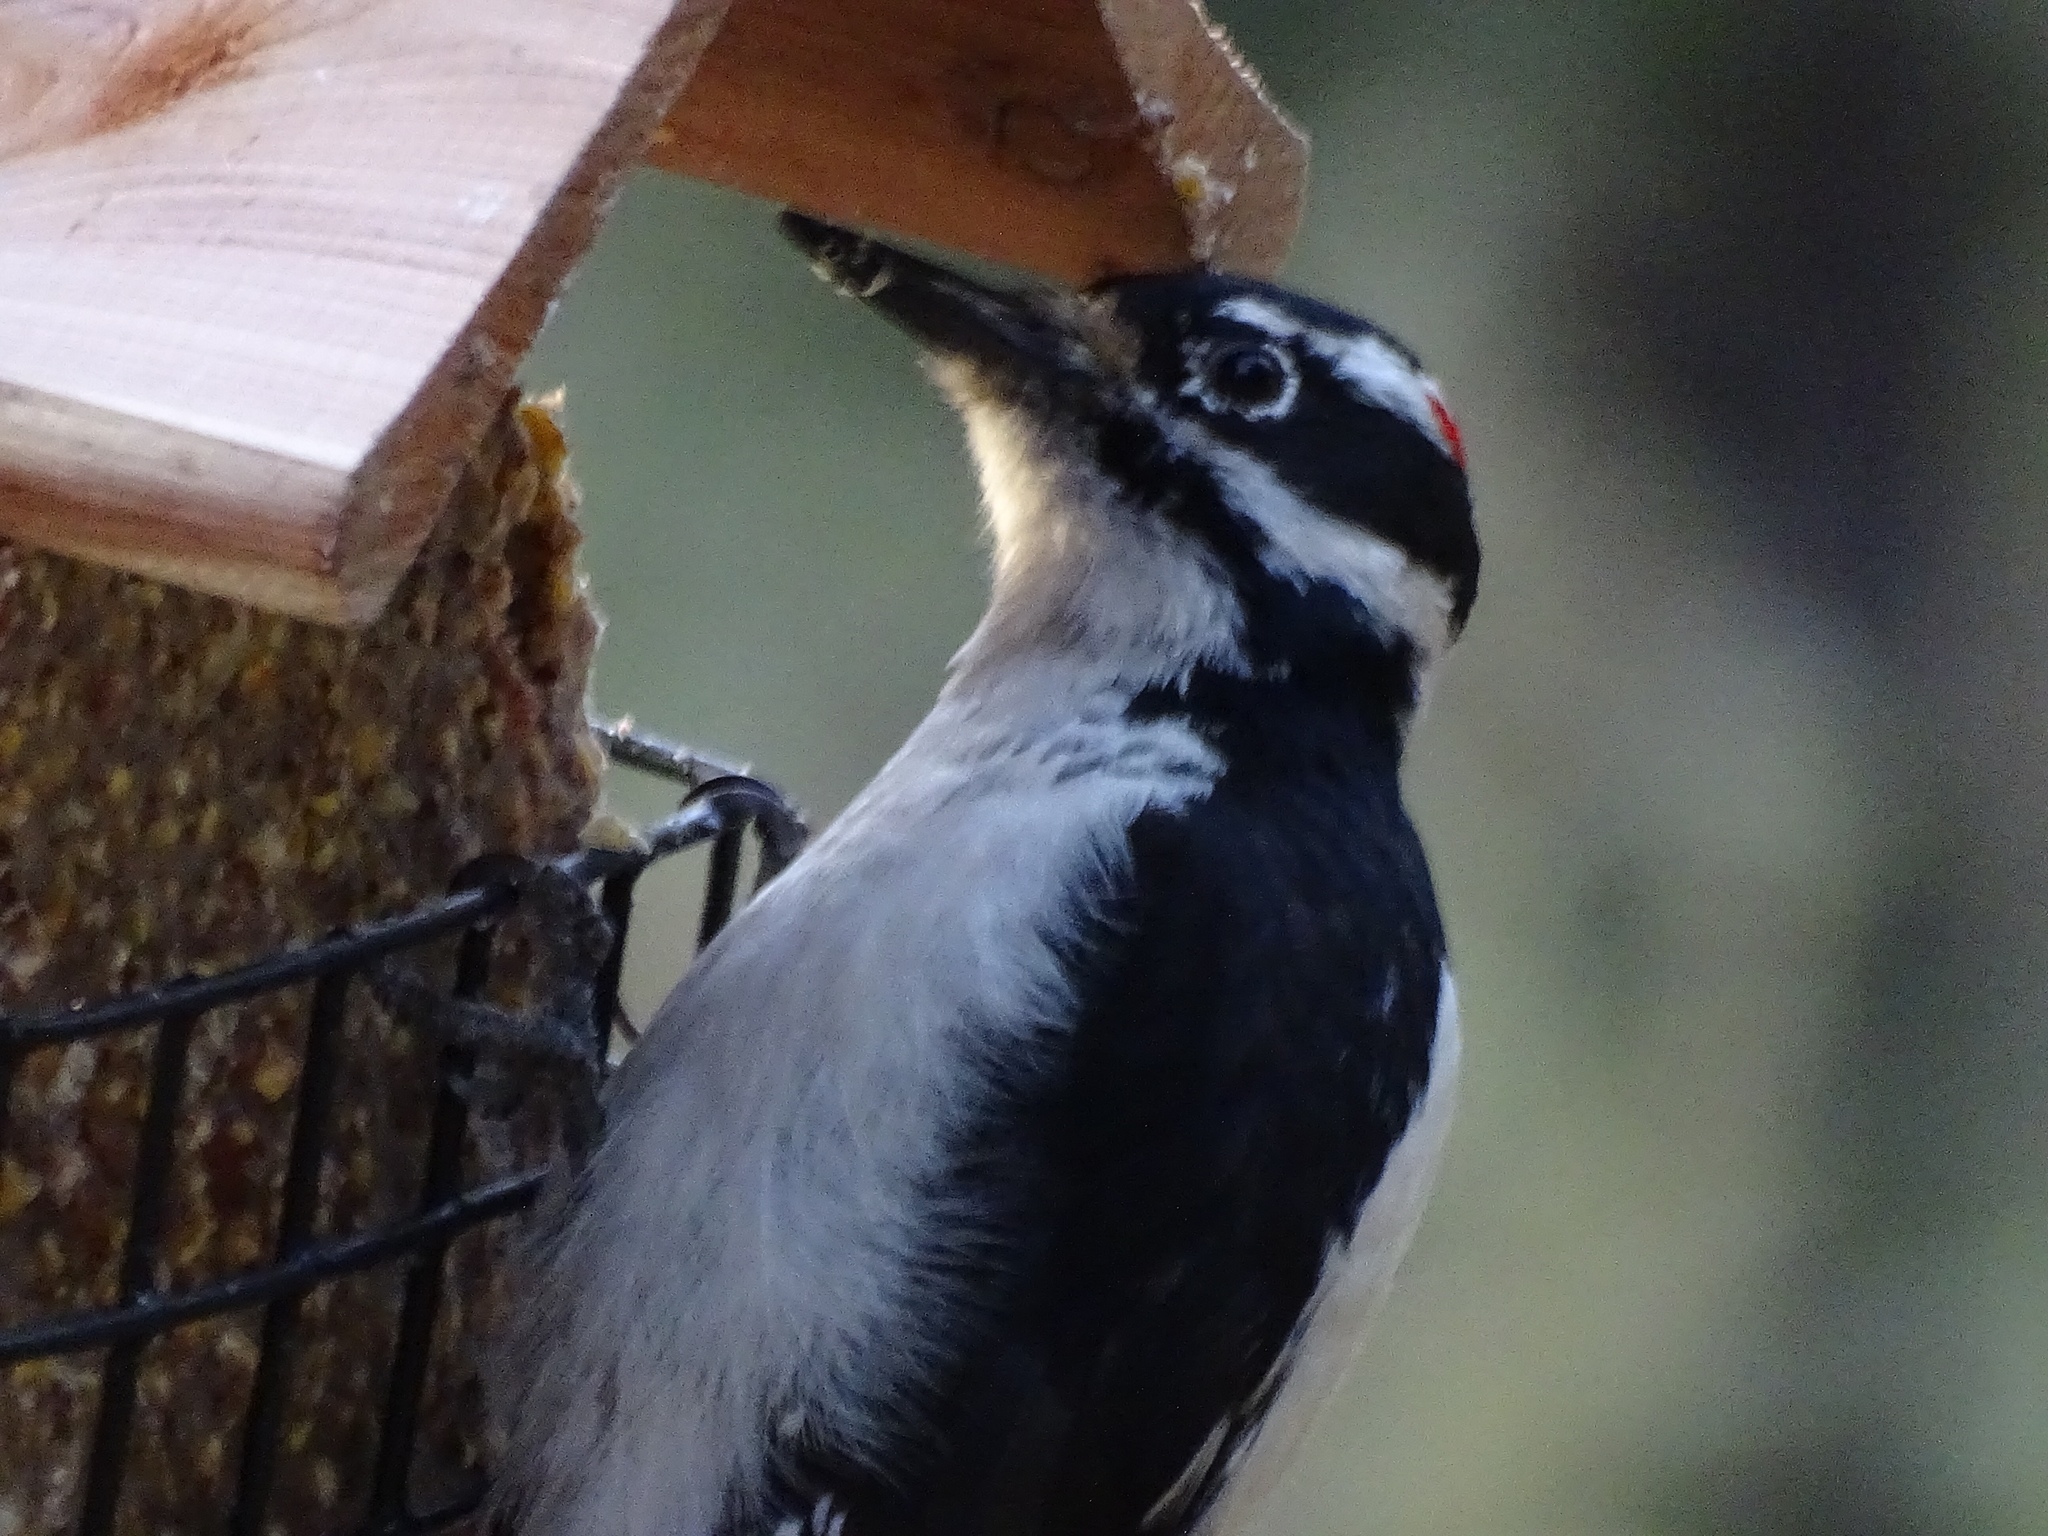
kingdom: Animalia
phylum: Chordata
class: Aves
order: Piciformes
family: Picidae
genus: Leuconotopicus
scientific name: Leuconotopicus villosus
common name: Hairy woodpecker
